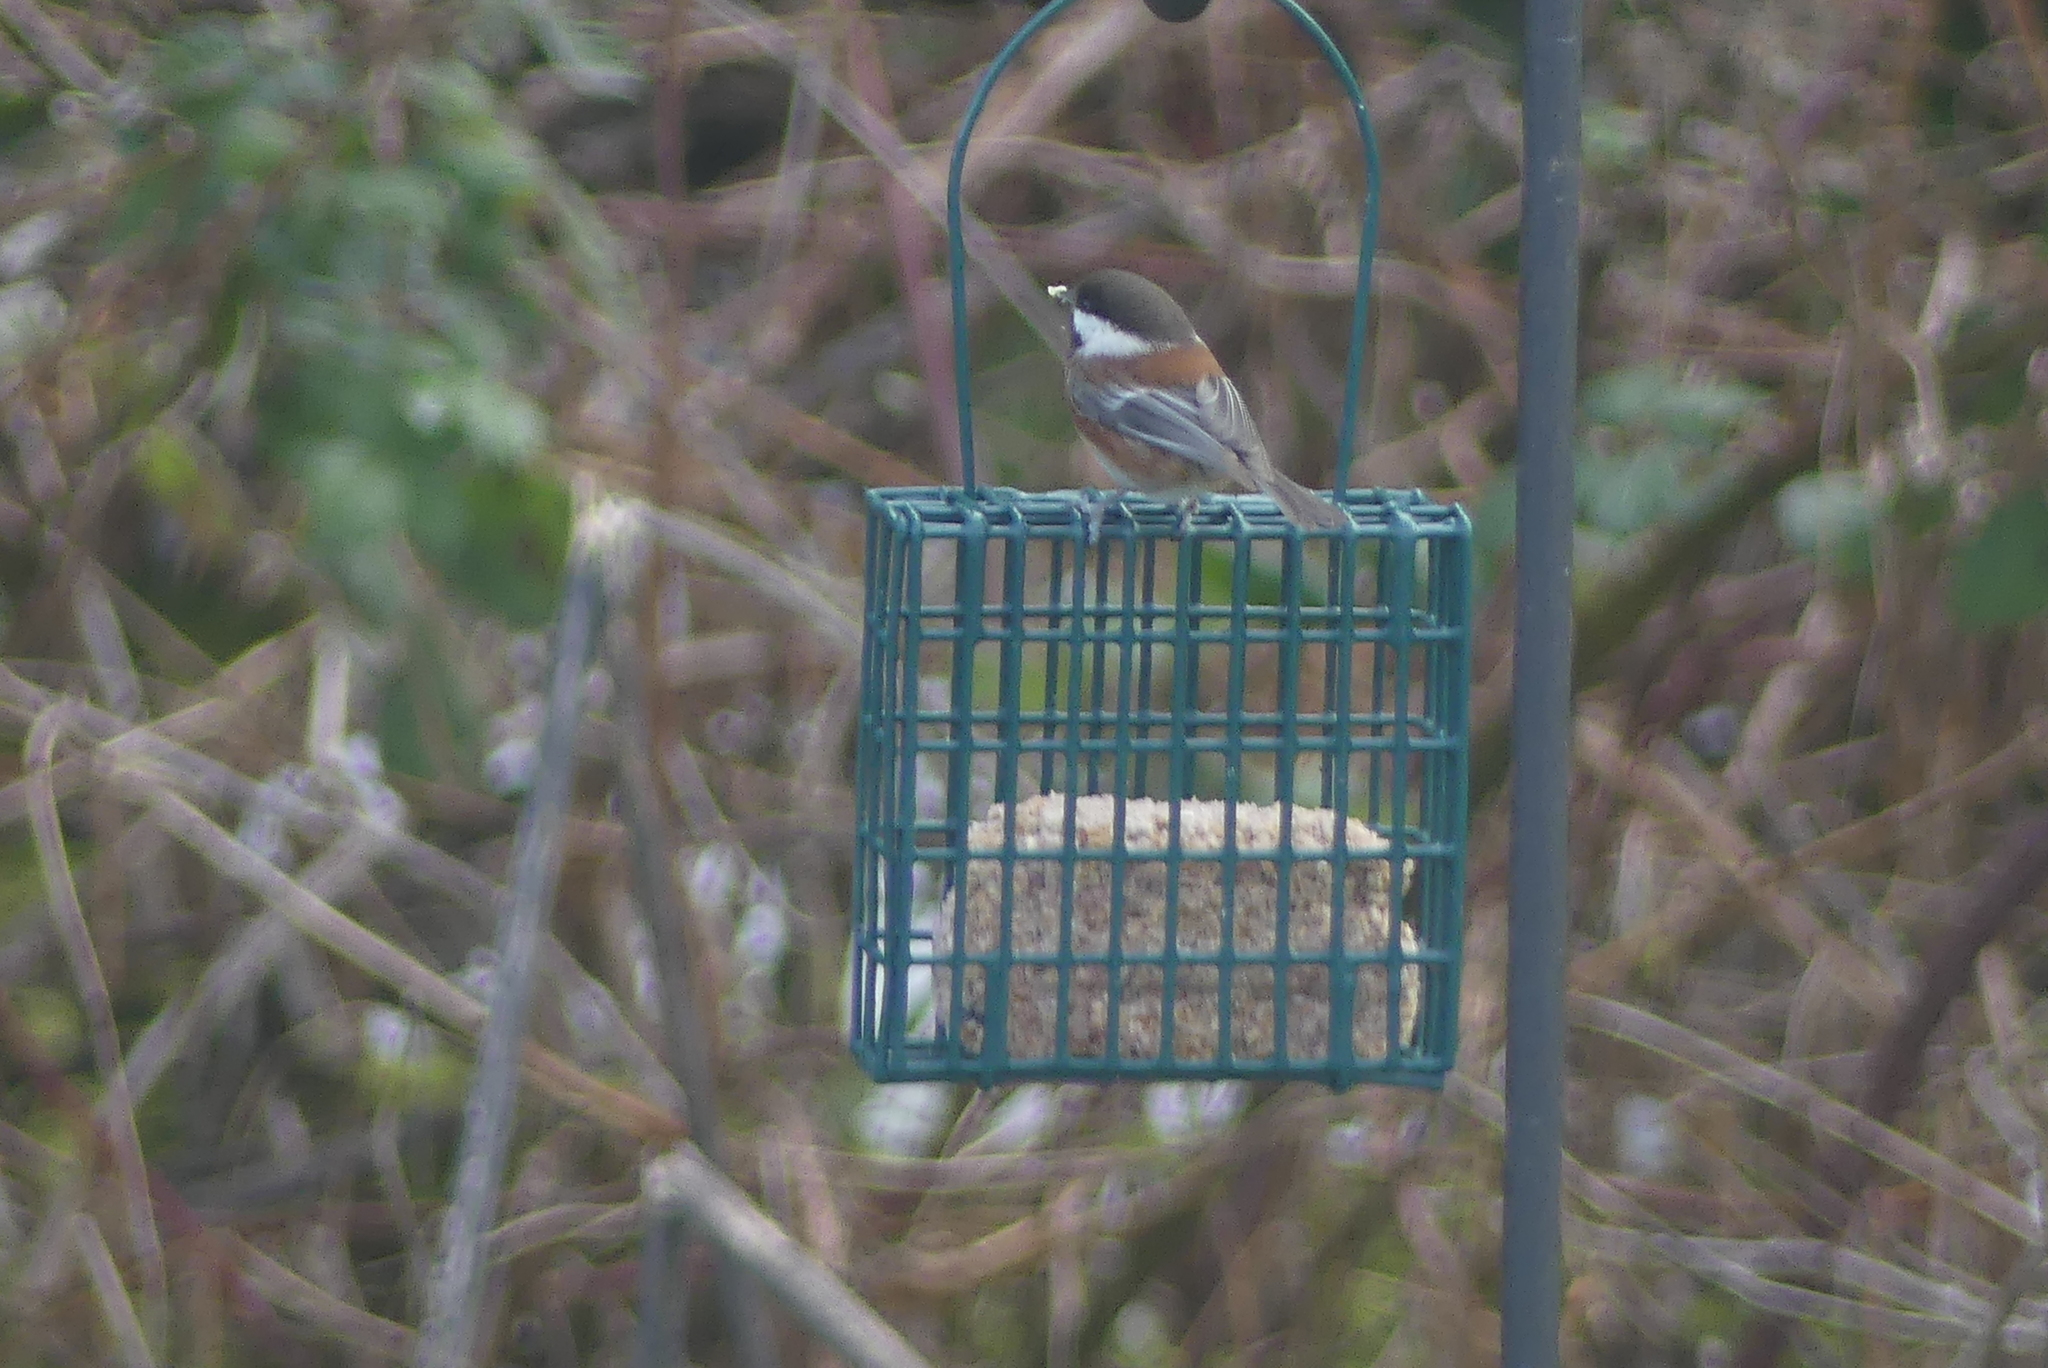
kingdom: Animalia
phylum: Chordata
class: Aves
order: Passeriformes
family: Paridae
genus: Poecile
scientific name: Poecile rufescens
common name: Chestnut-backed chickadee
